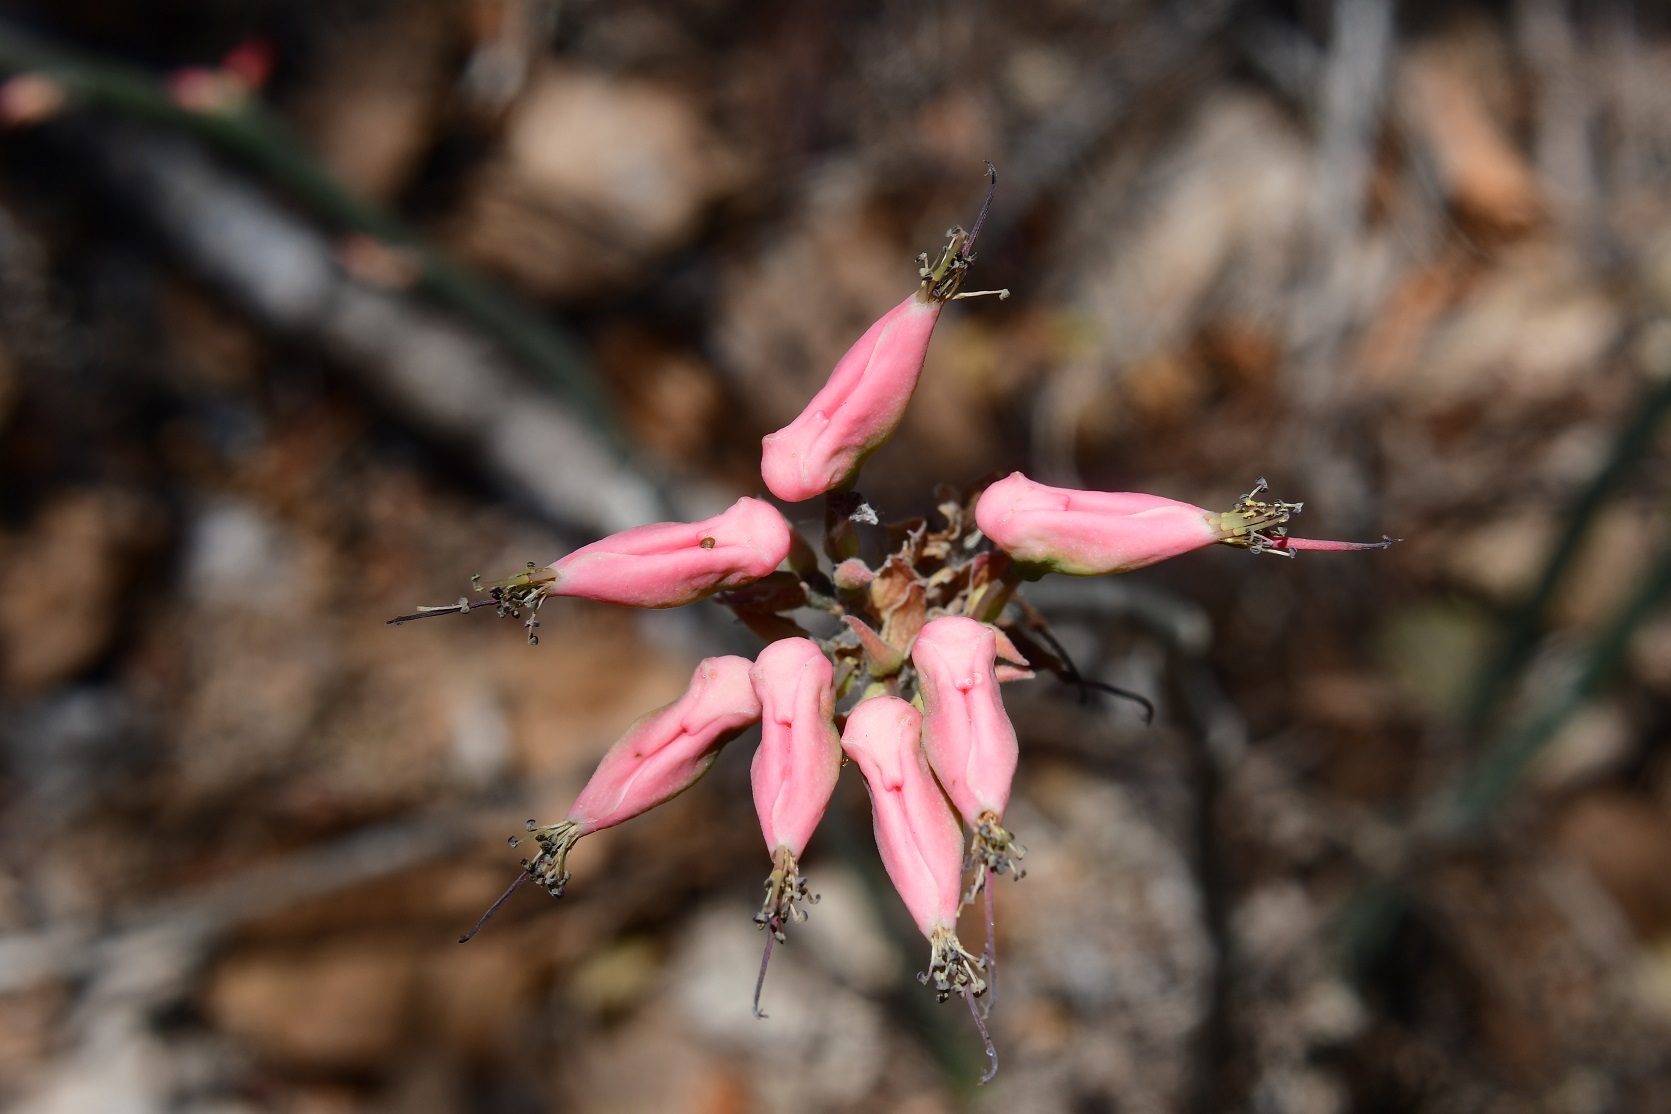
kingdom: Plantae
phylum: Tracheophyta
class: Magnoliopsida
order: Malpighiales
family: Euphorbiaceae
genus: Euphorbia
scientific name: Euphorbia tithymaloides
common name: Slipperplant
